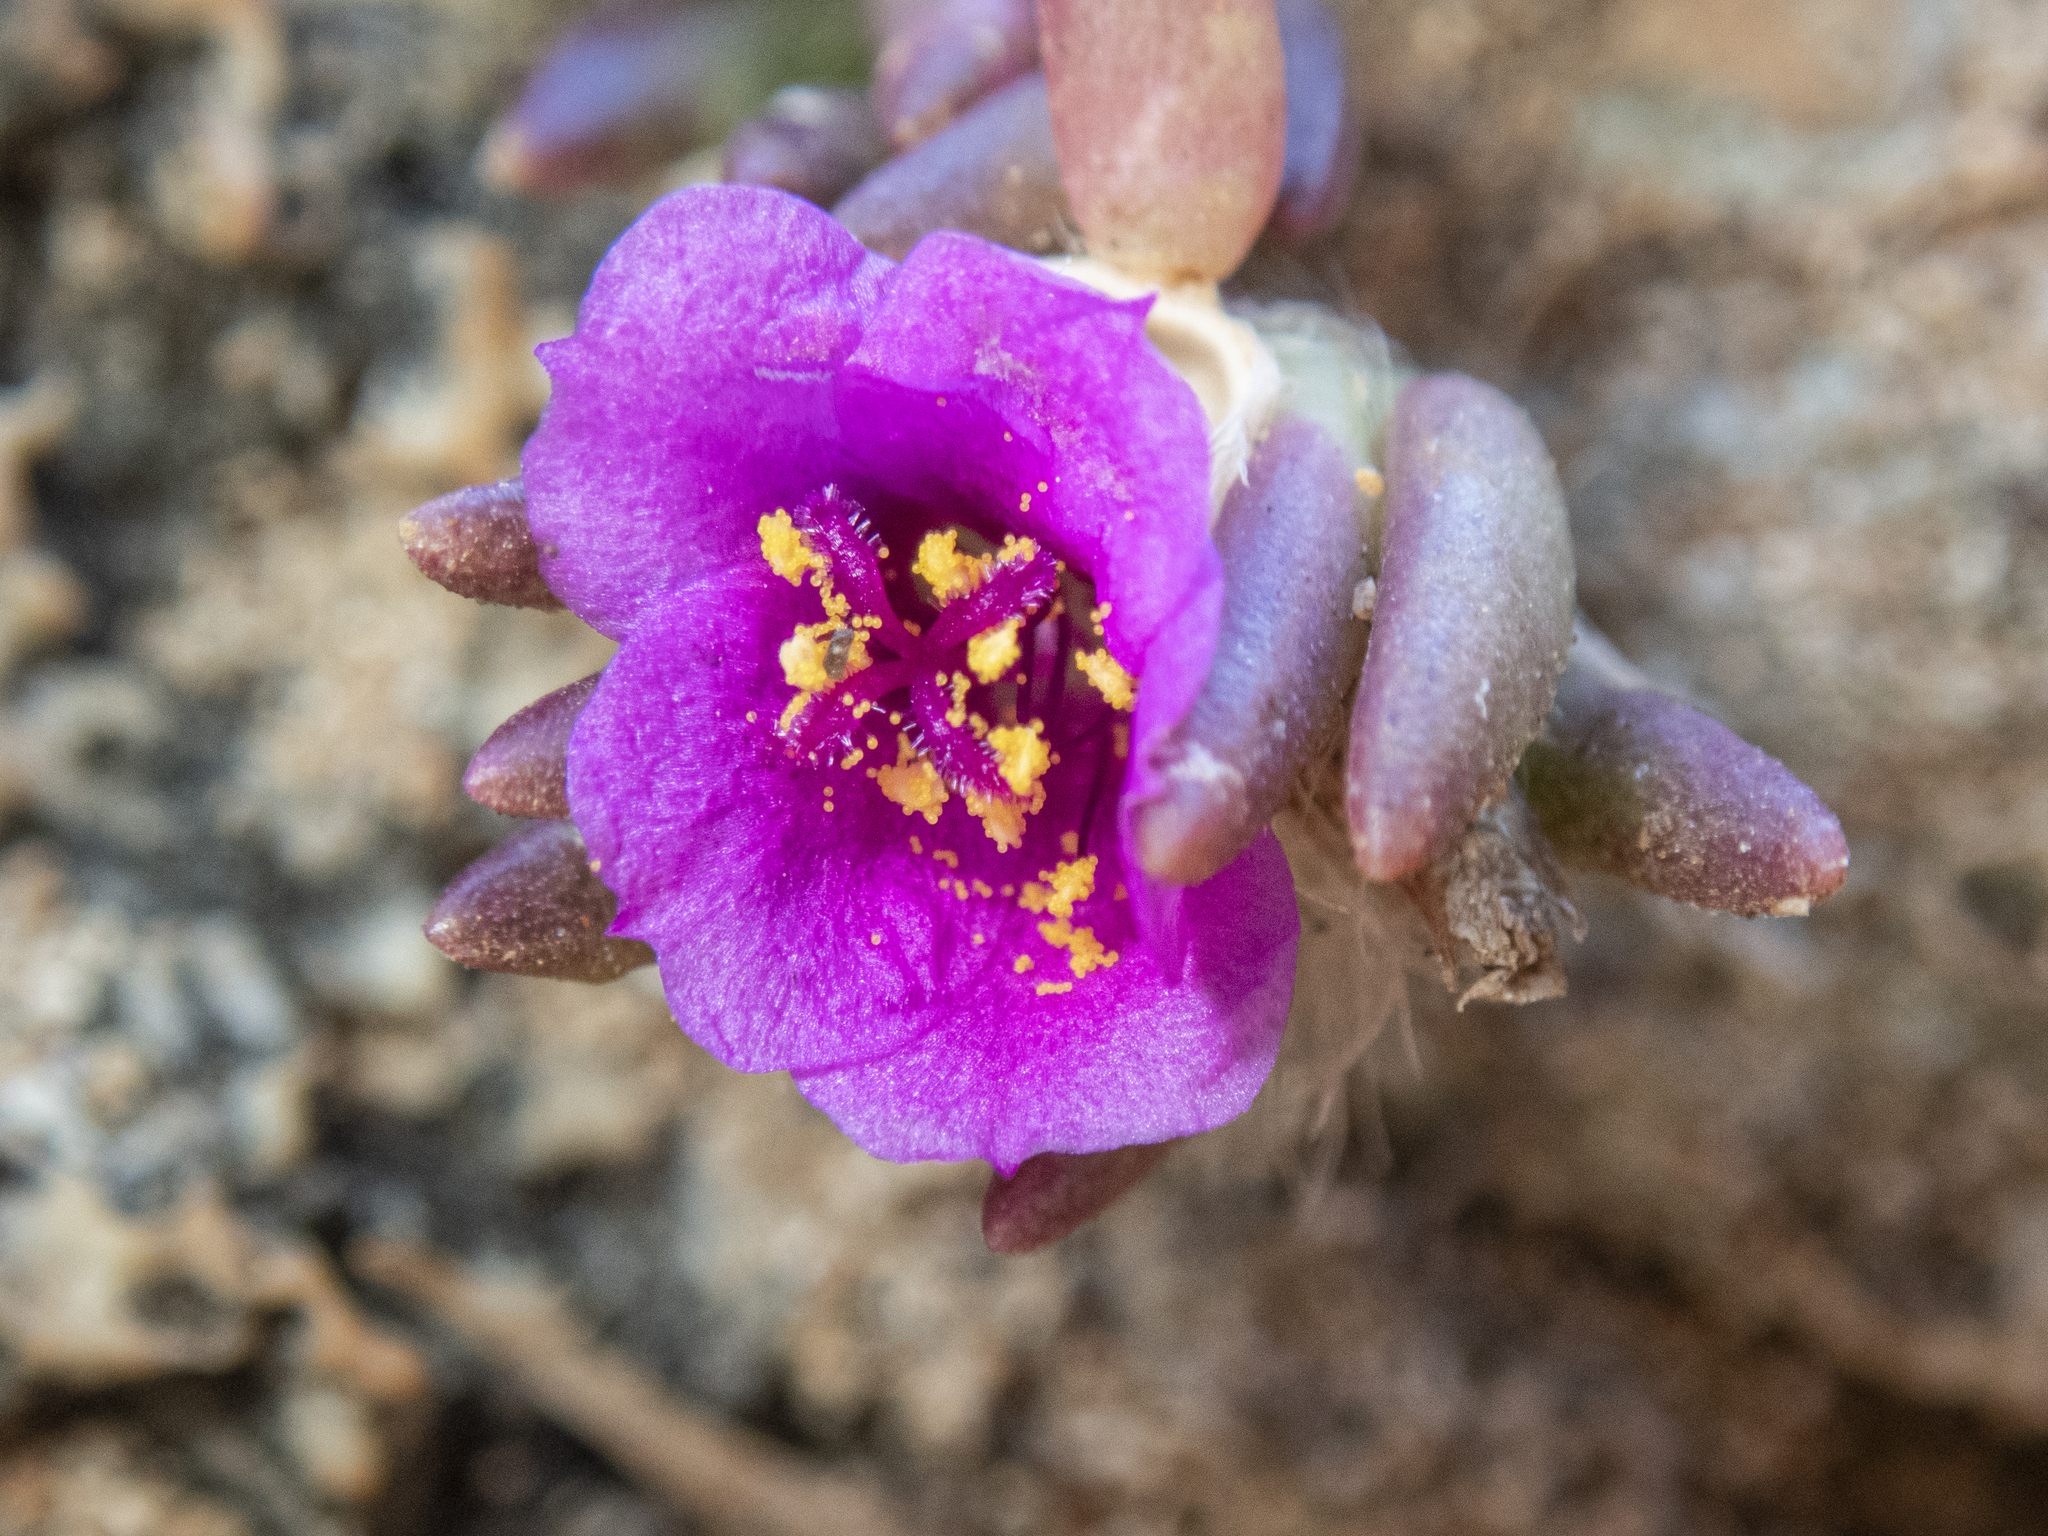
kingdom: Plantae
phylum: Tracheophyta
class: Magnoliopsida
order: Caryophyllales
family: Portulacaceae
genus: Portulaca
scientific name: Portulaca pilosa
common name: Kiss me quick
